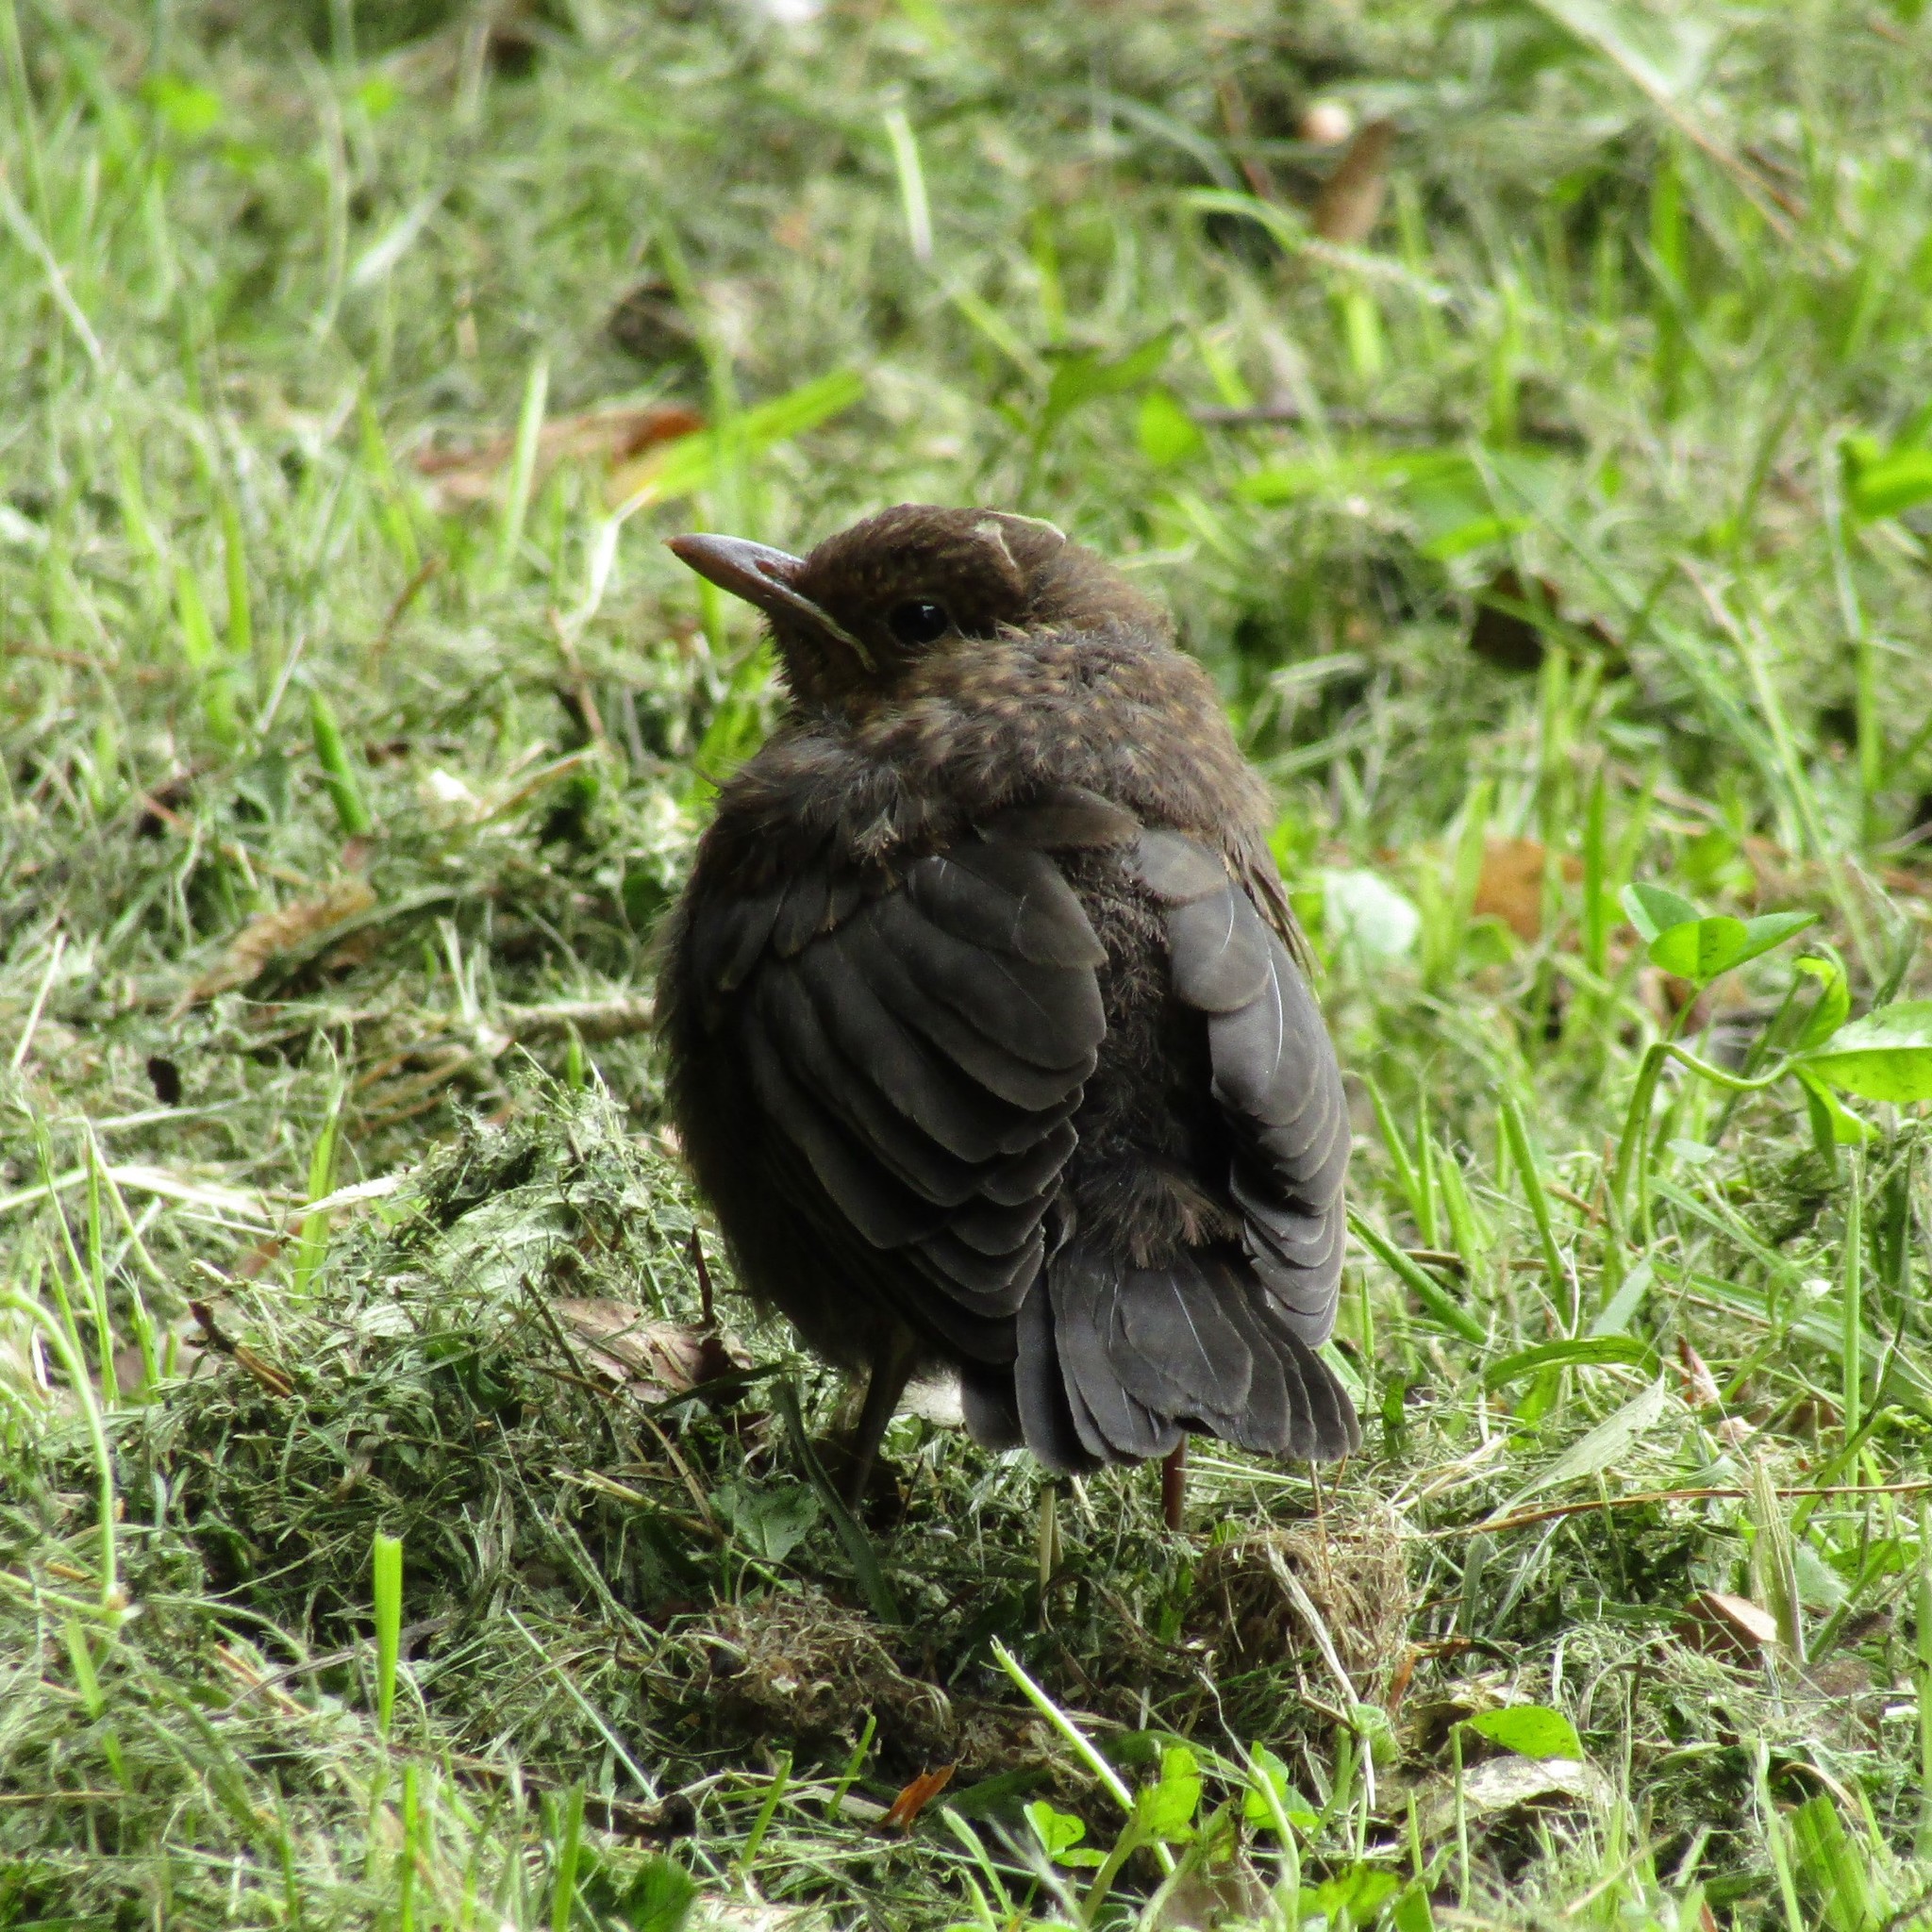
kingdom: Animalia
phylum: Chordata
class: Aves
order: Passeriformes
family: Turdidae
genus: Turdus
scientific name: Turdus merula
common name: Common blackbird
